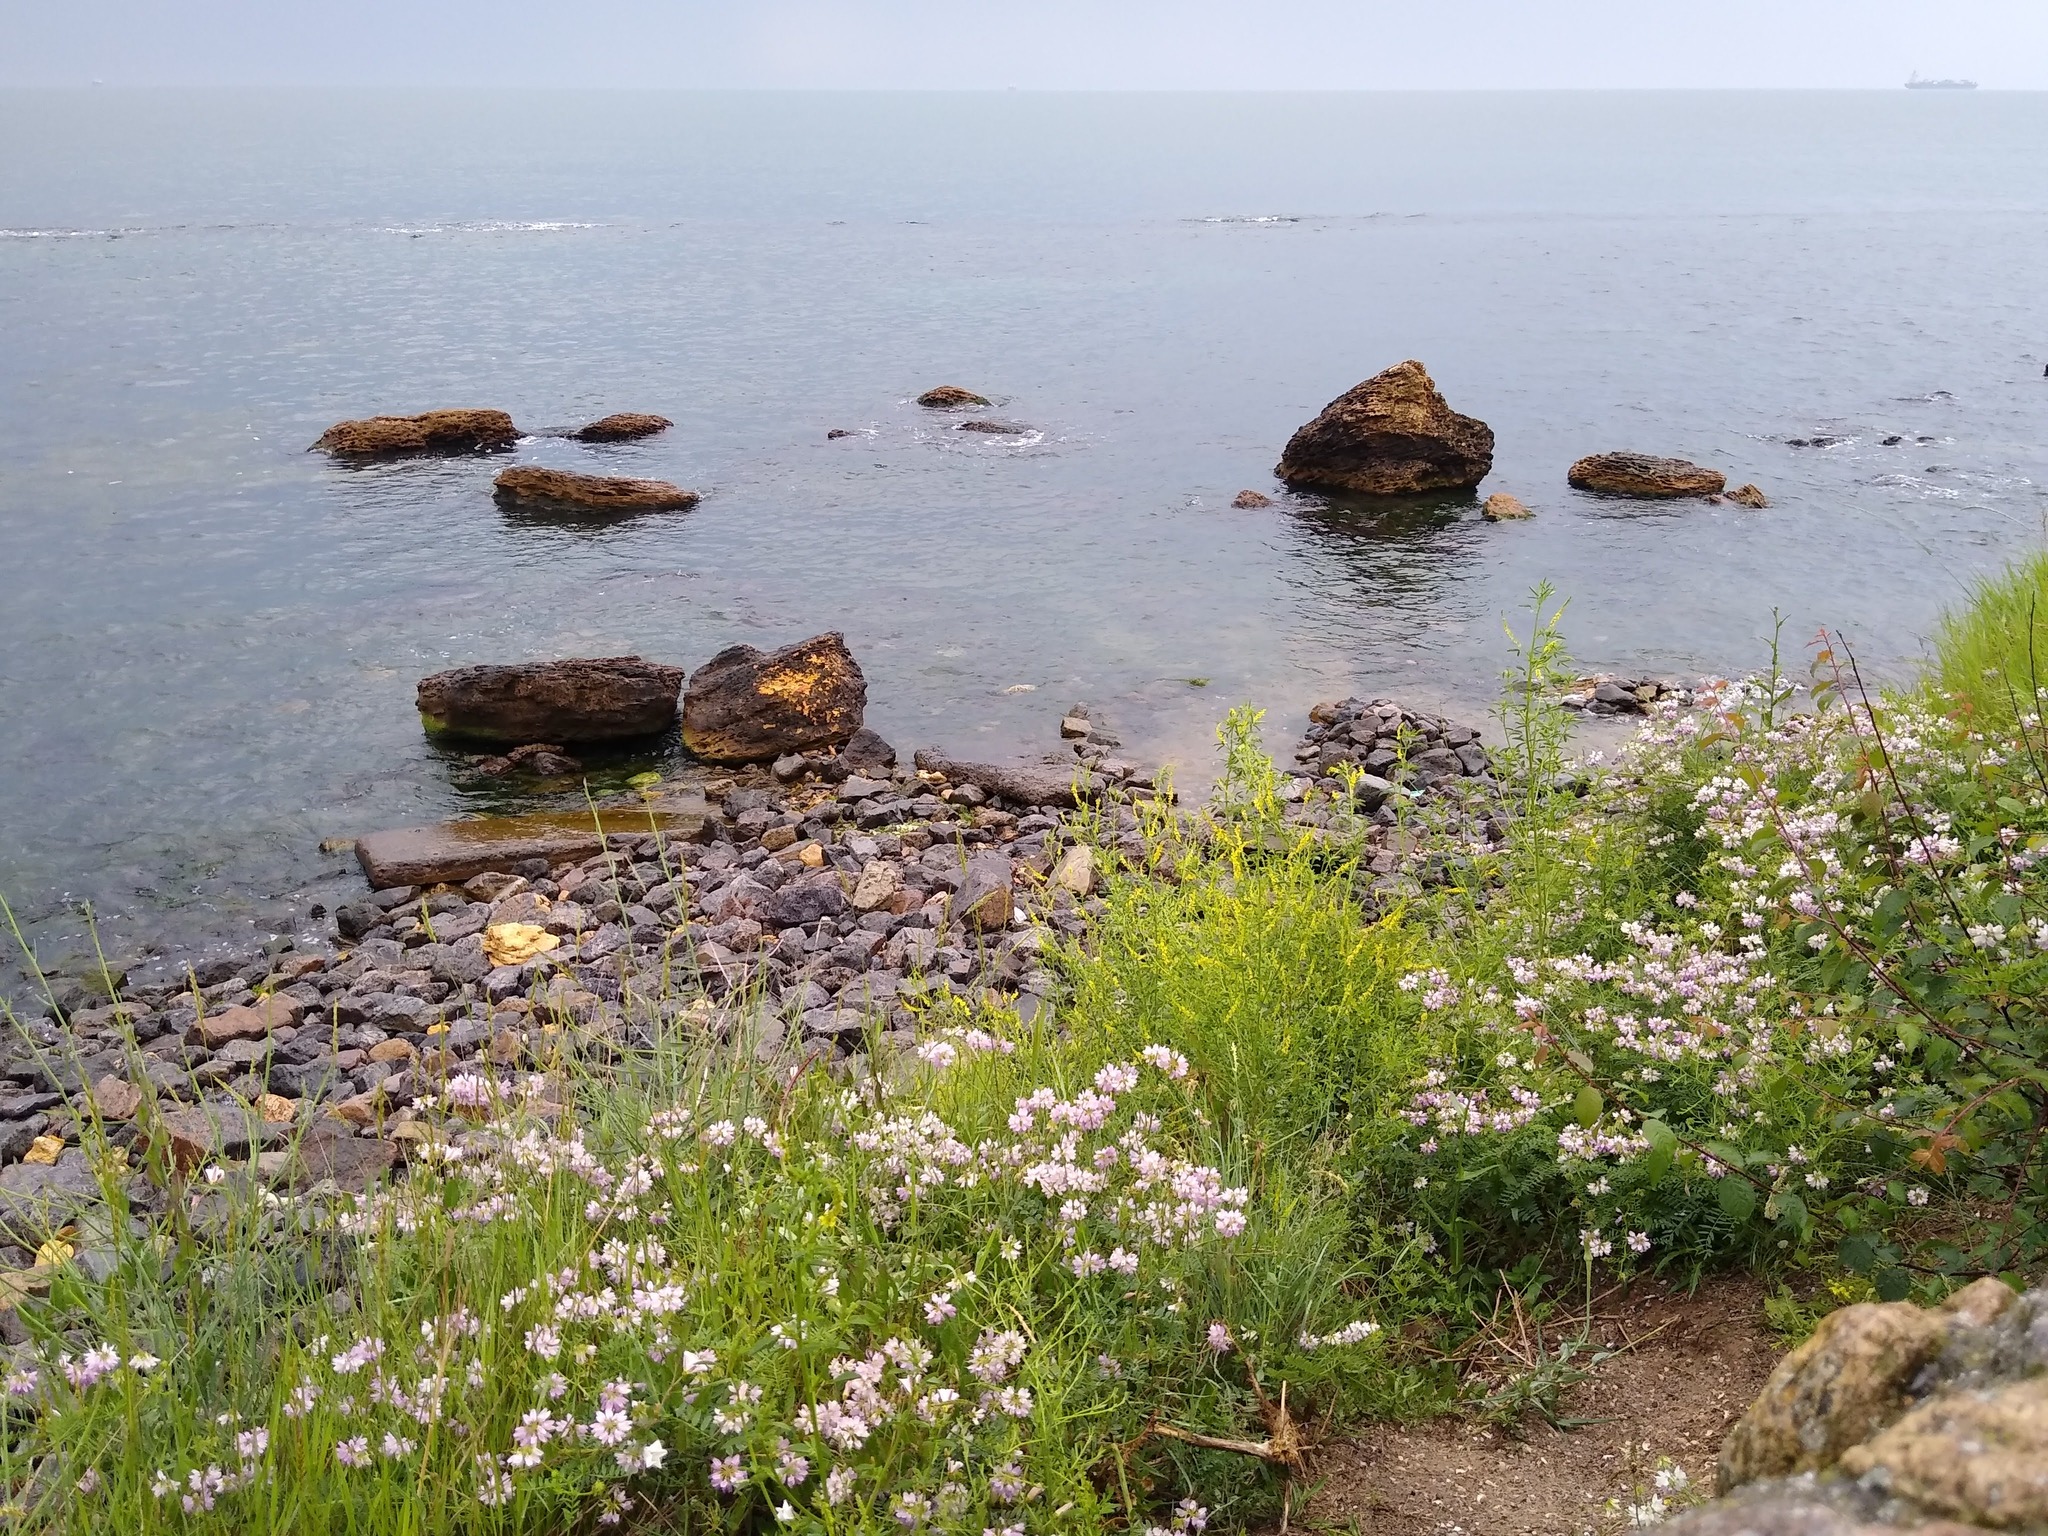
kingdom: Plantae
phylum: Tracheophyta
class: Magnoliopsida
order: Fabales
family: Fabaceae
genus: Coronilla
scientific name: Coronilla varia
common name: Crownvetch
